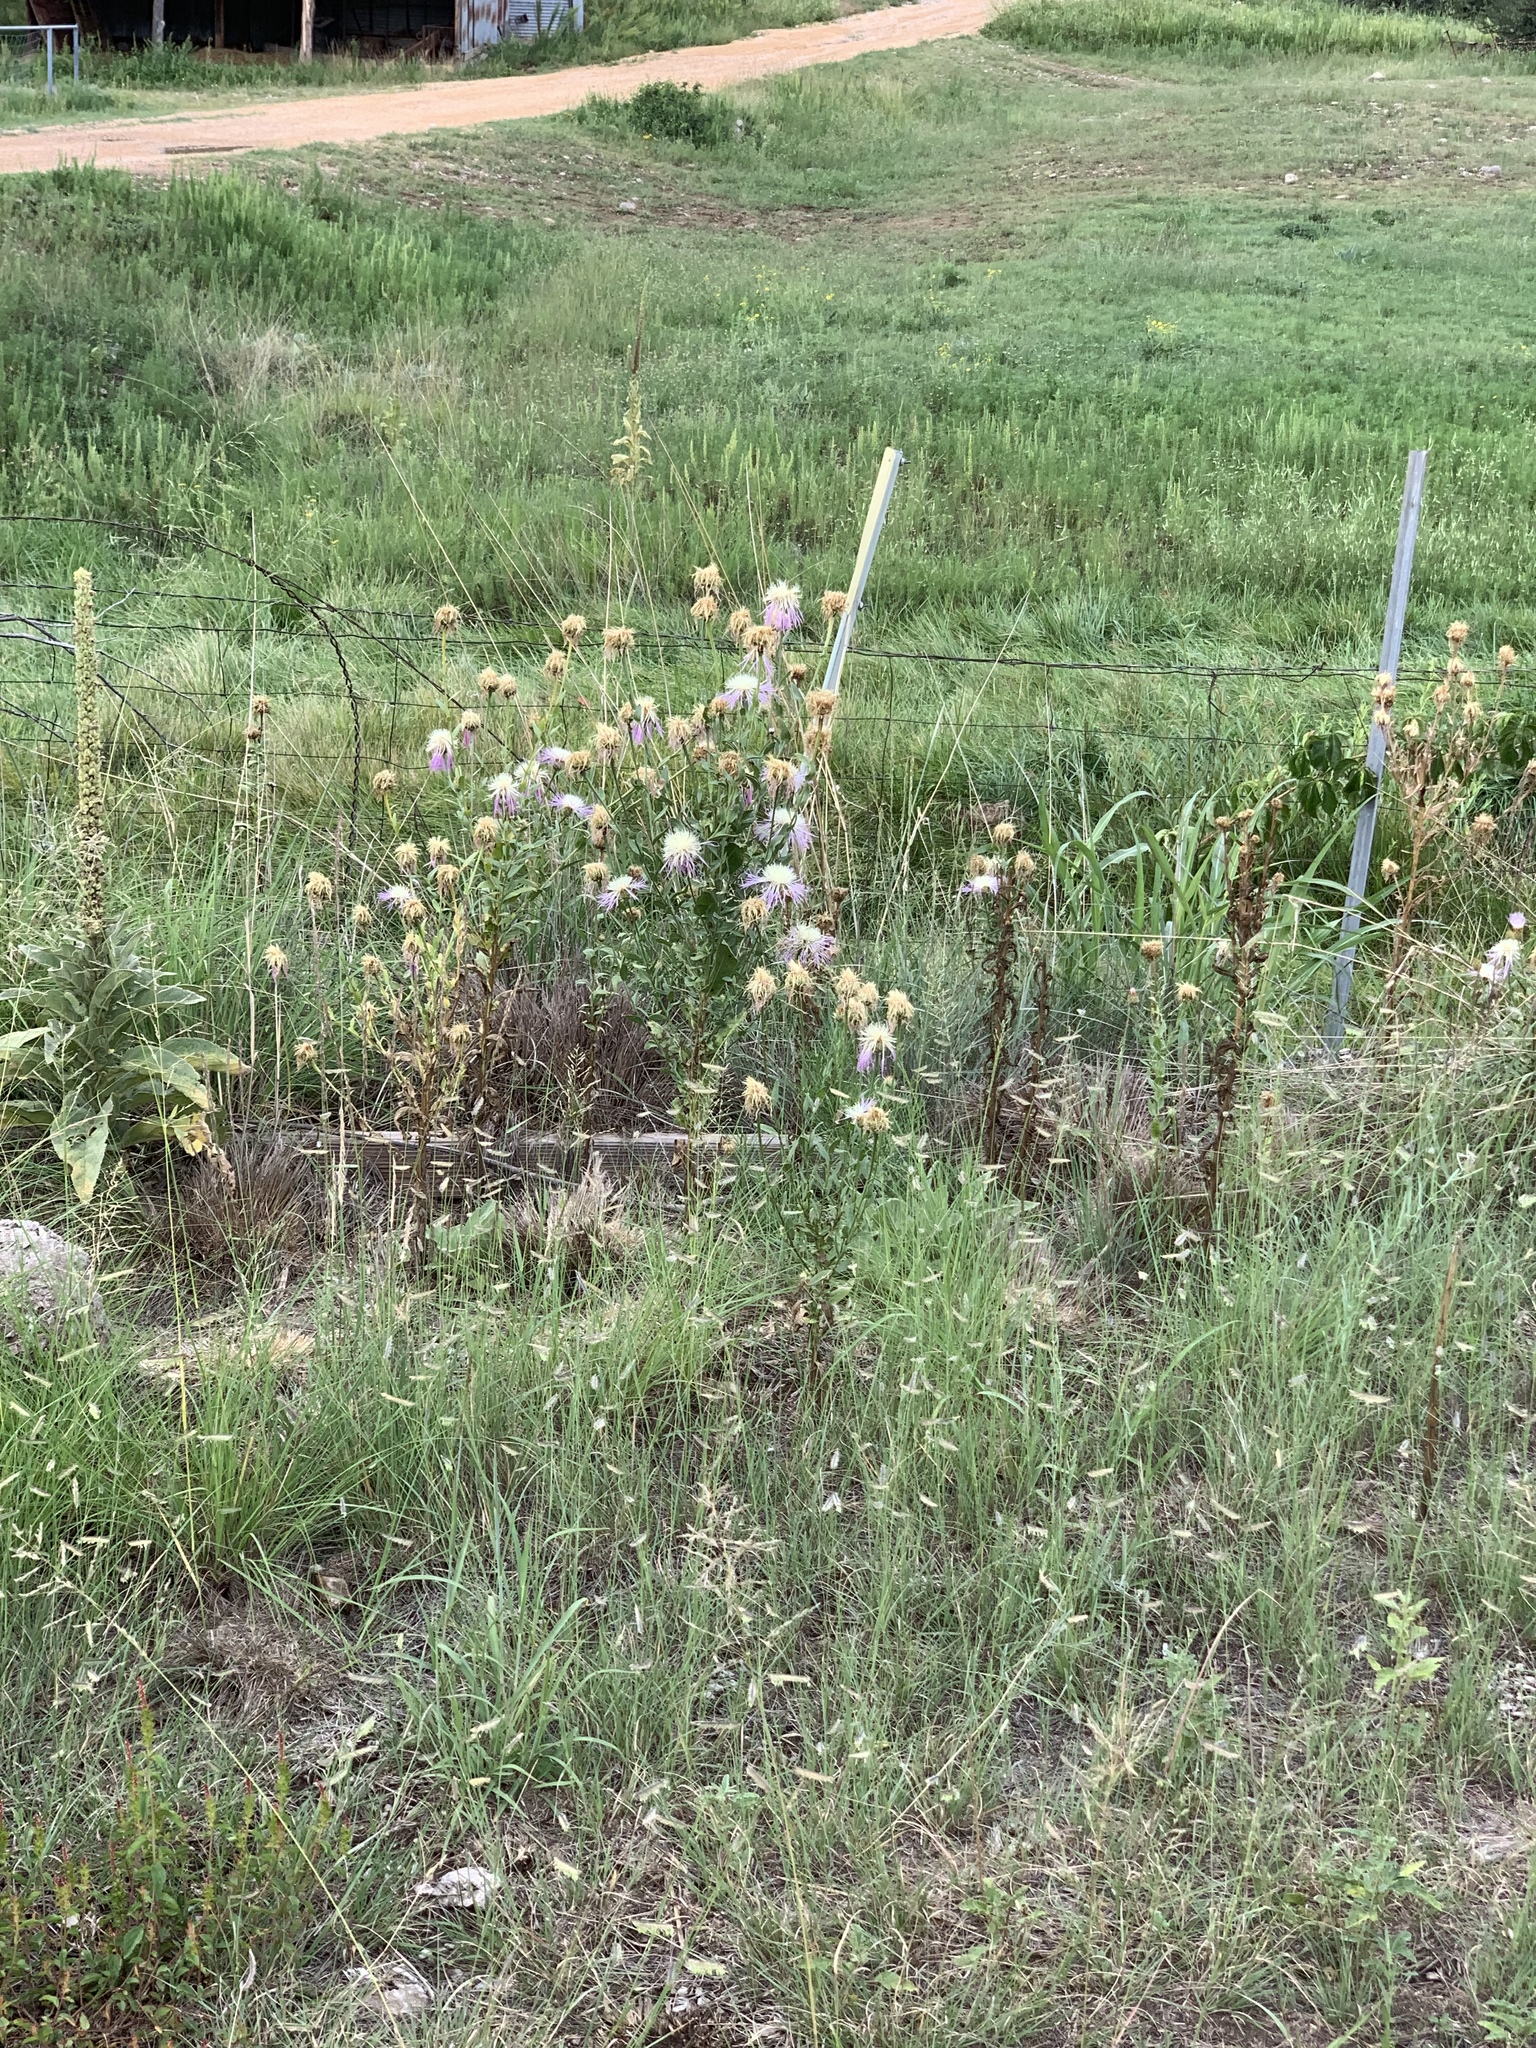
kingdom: Plantae
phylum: Tracheophyta
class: Magnoliopsida
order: Asterales
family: Asteraceae
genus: Plectocephalus
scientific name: Plectocephalus americanus
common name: American basket-flower
